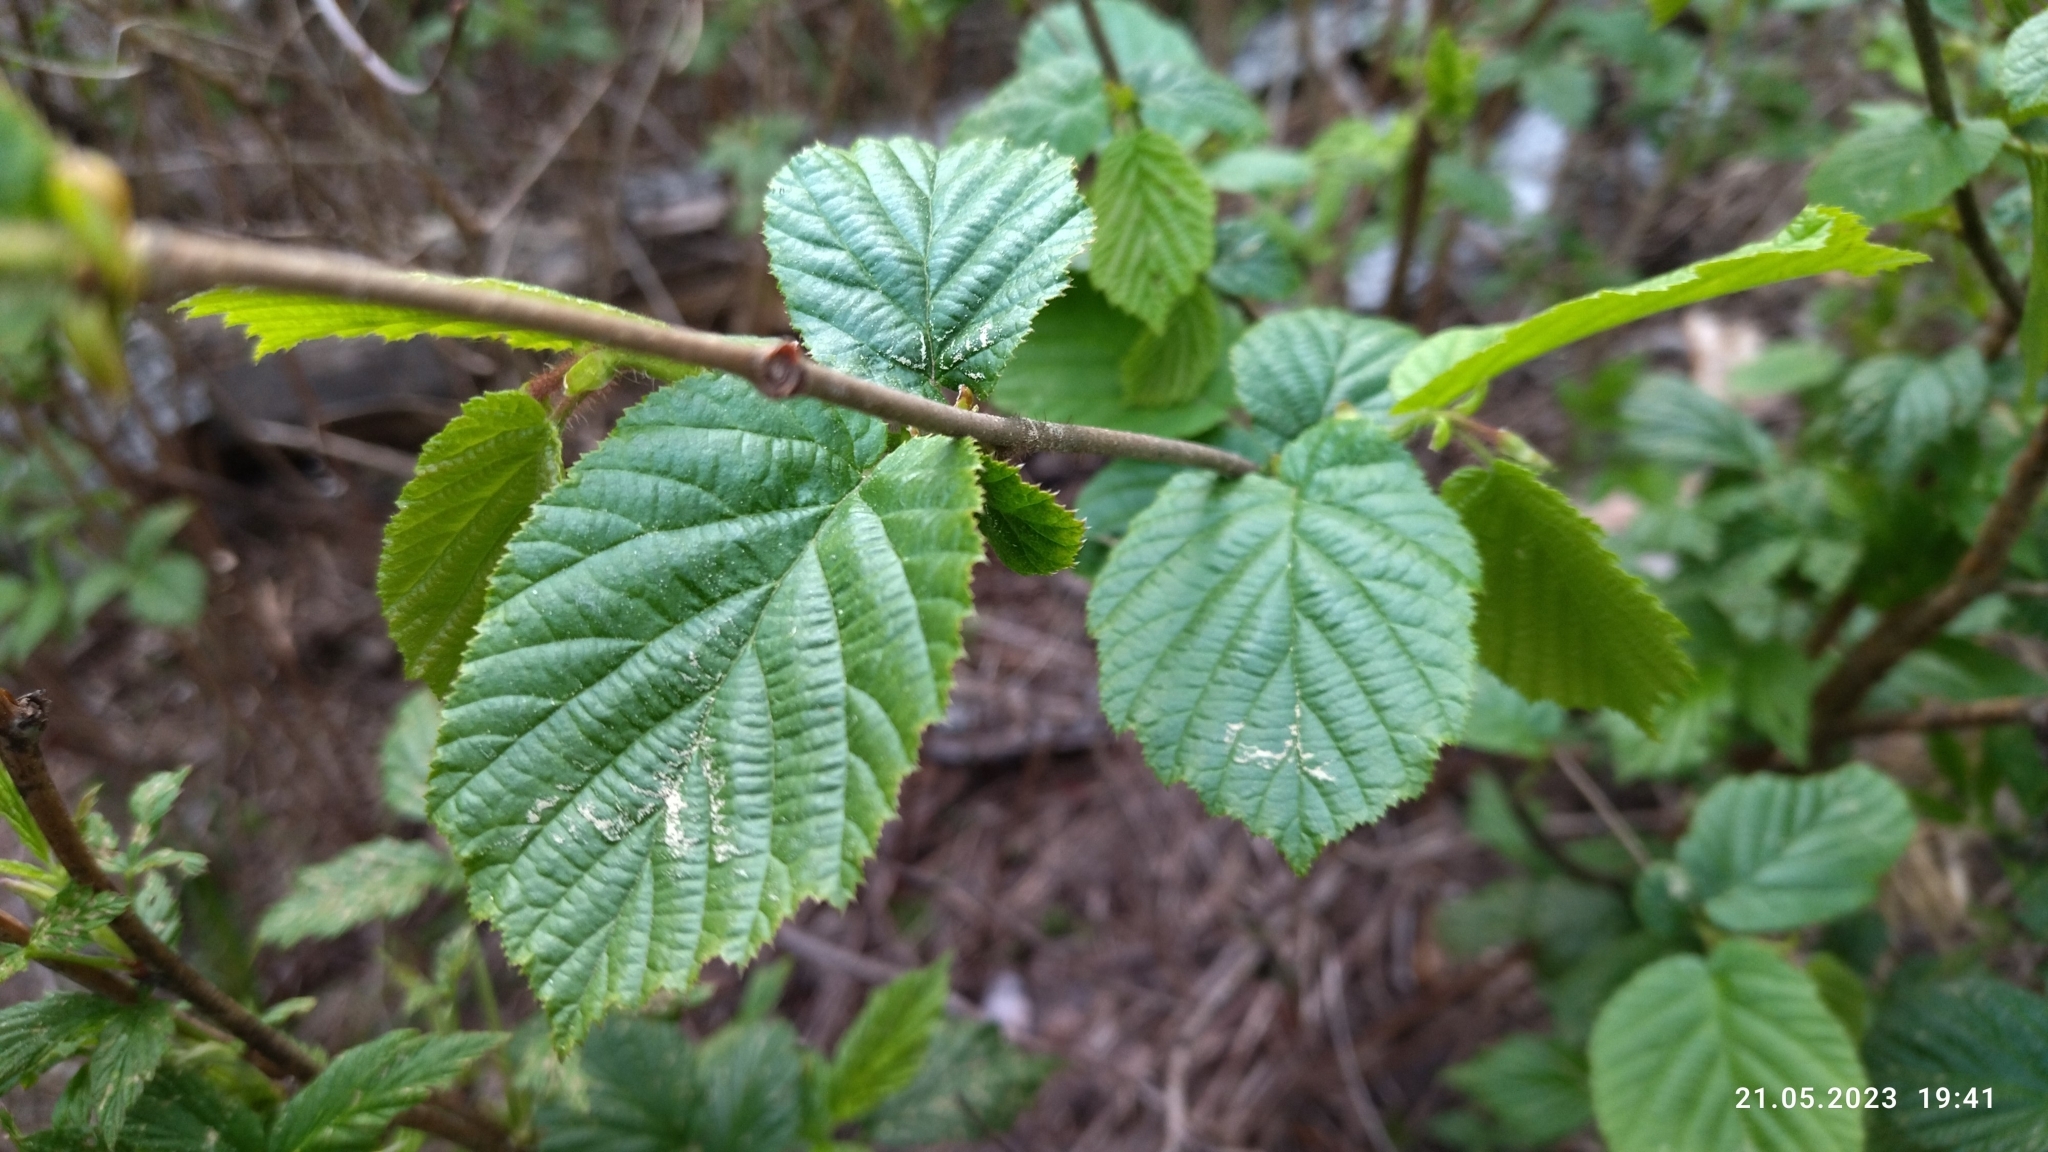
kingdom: Plantae
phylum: Tracheophyta
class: Magnoliopsida
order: Fagales
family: Betulaceae
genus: Corylus
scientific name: Corylus avellana
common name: European hazel
